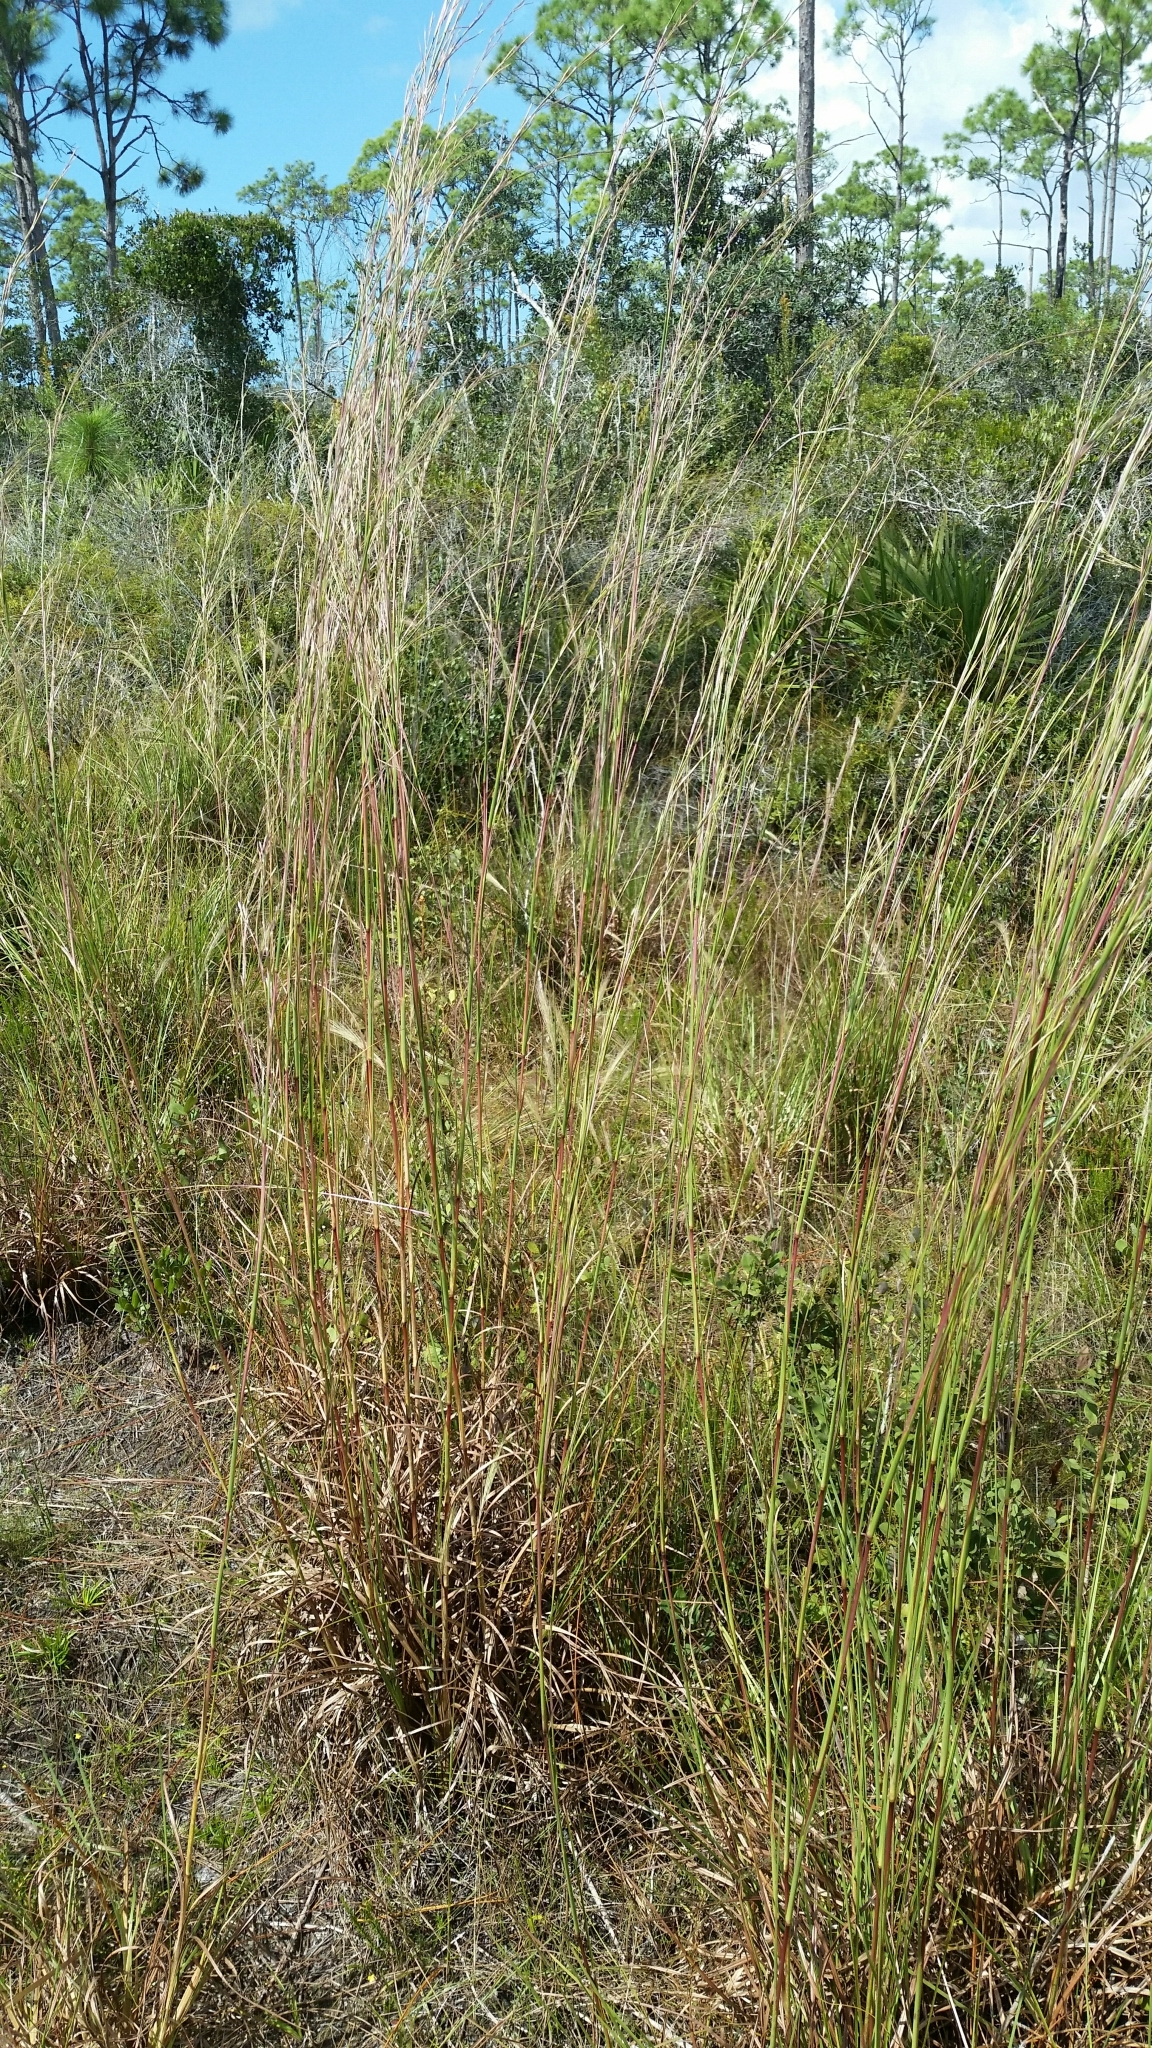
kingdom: Plantae
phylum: Tracheophyta
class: Liliopsida
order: Poales
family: Poaceae
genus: Andropogon
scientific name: Andropogon brachystachyus
